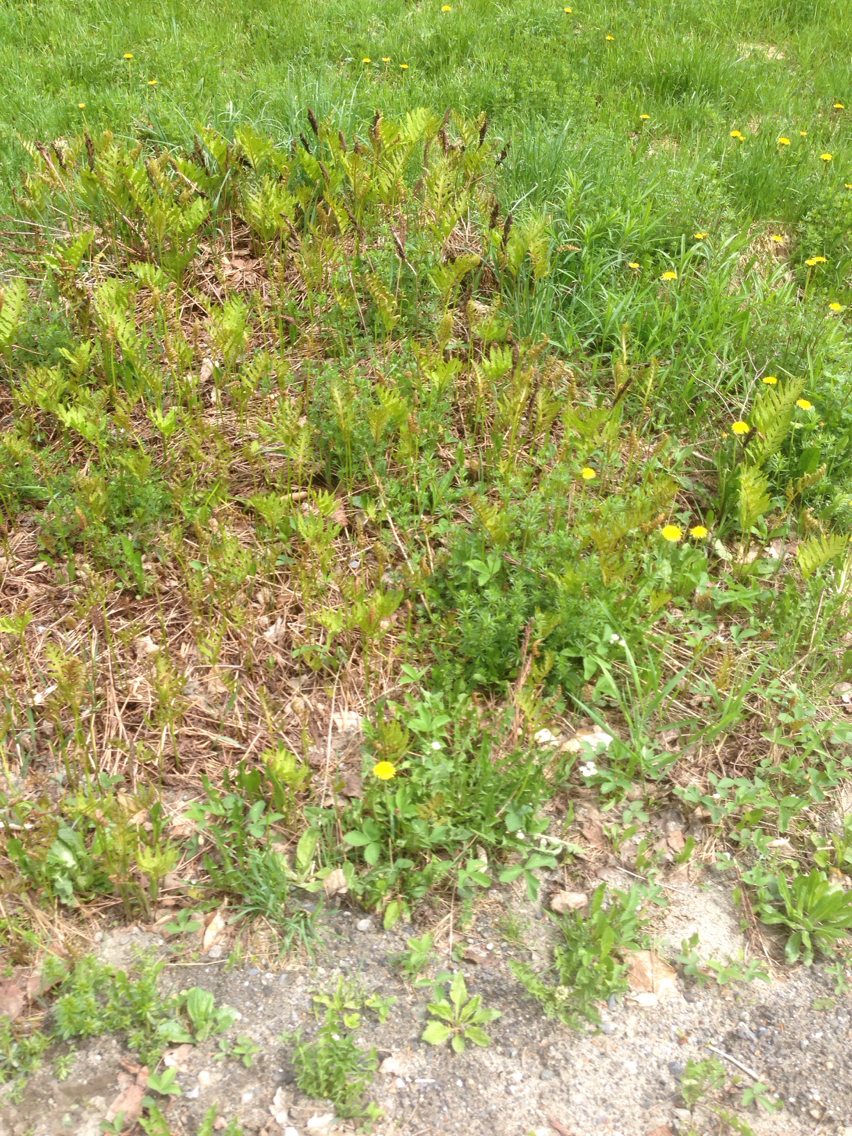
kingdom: Plantae
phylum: Tracheophyta
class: Polypodiopsida
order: Polypodiales
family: Onocleaceae
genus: Onoclea
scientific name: Onoclea sensibilis
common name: Sensitive fern
